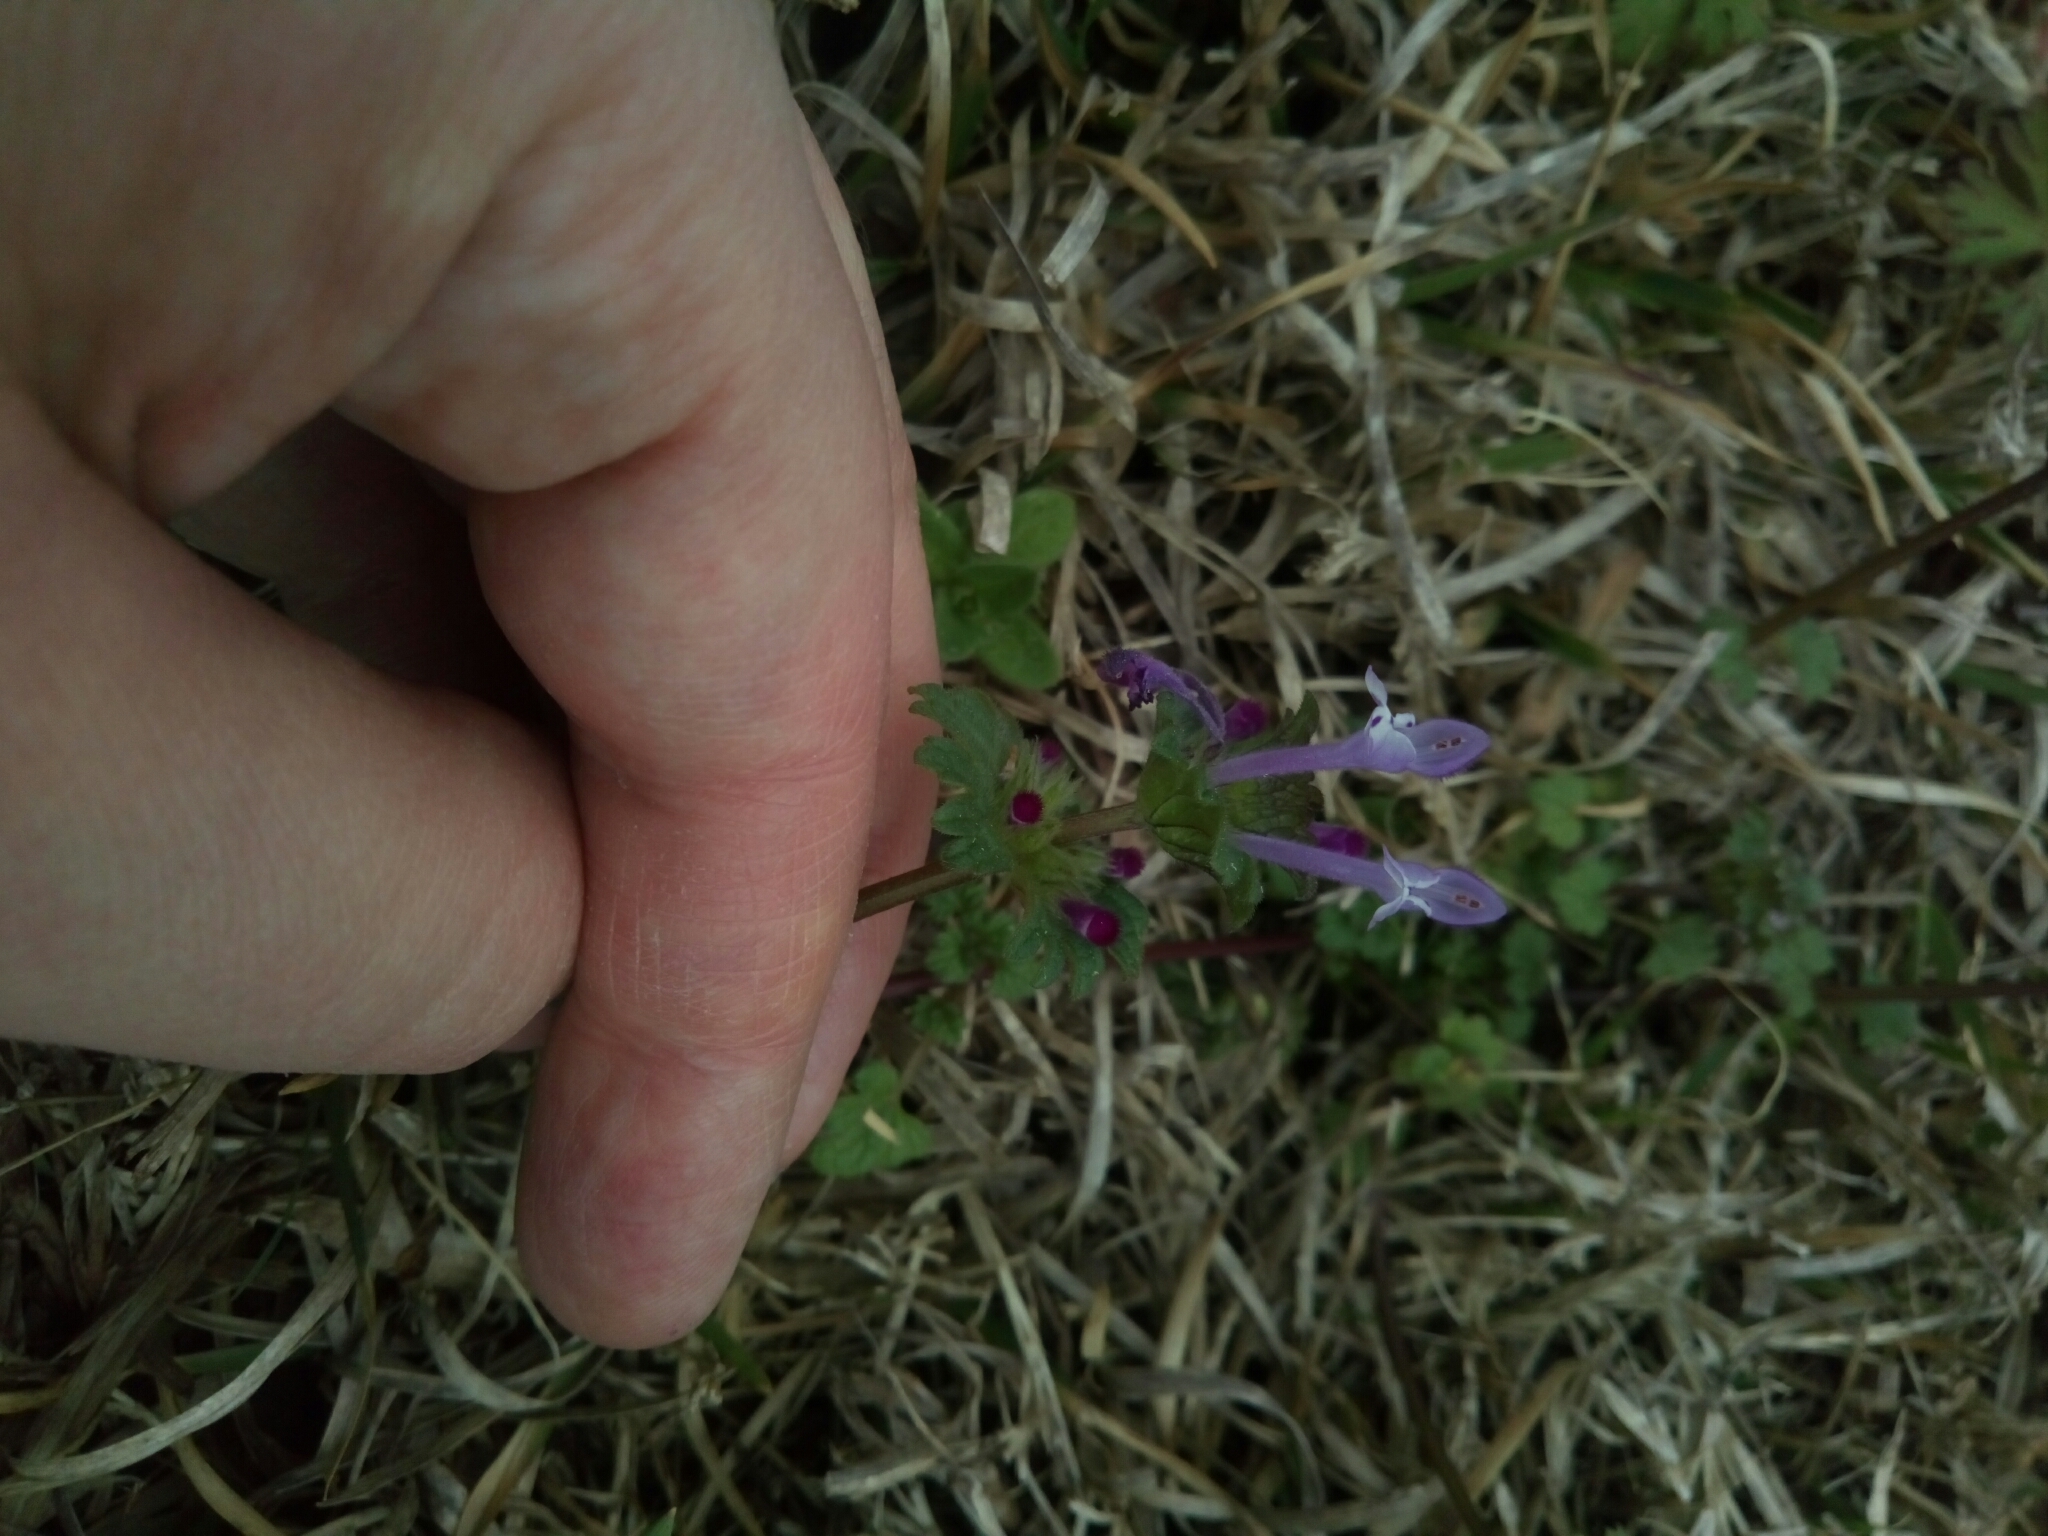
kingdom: Plantae
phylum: Tracheophyta
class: Magnoliopsida
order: Lamiales
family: Lamiaceae
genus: Lamium
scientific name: Lamium amplexicaule
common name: Henbit dead-nettle
